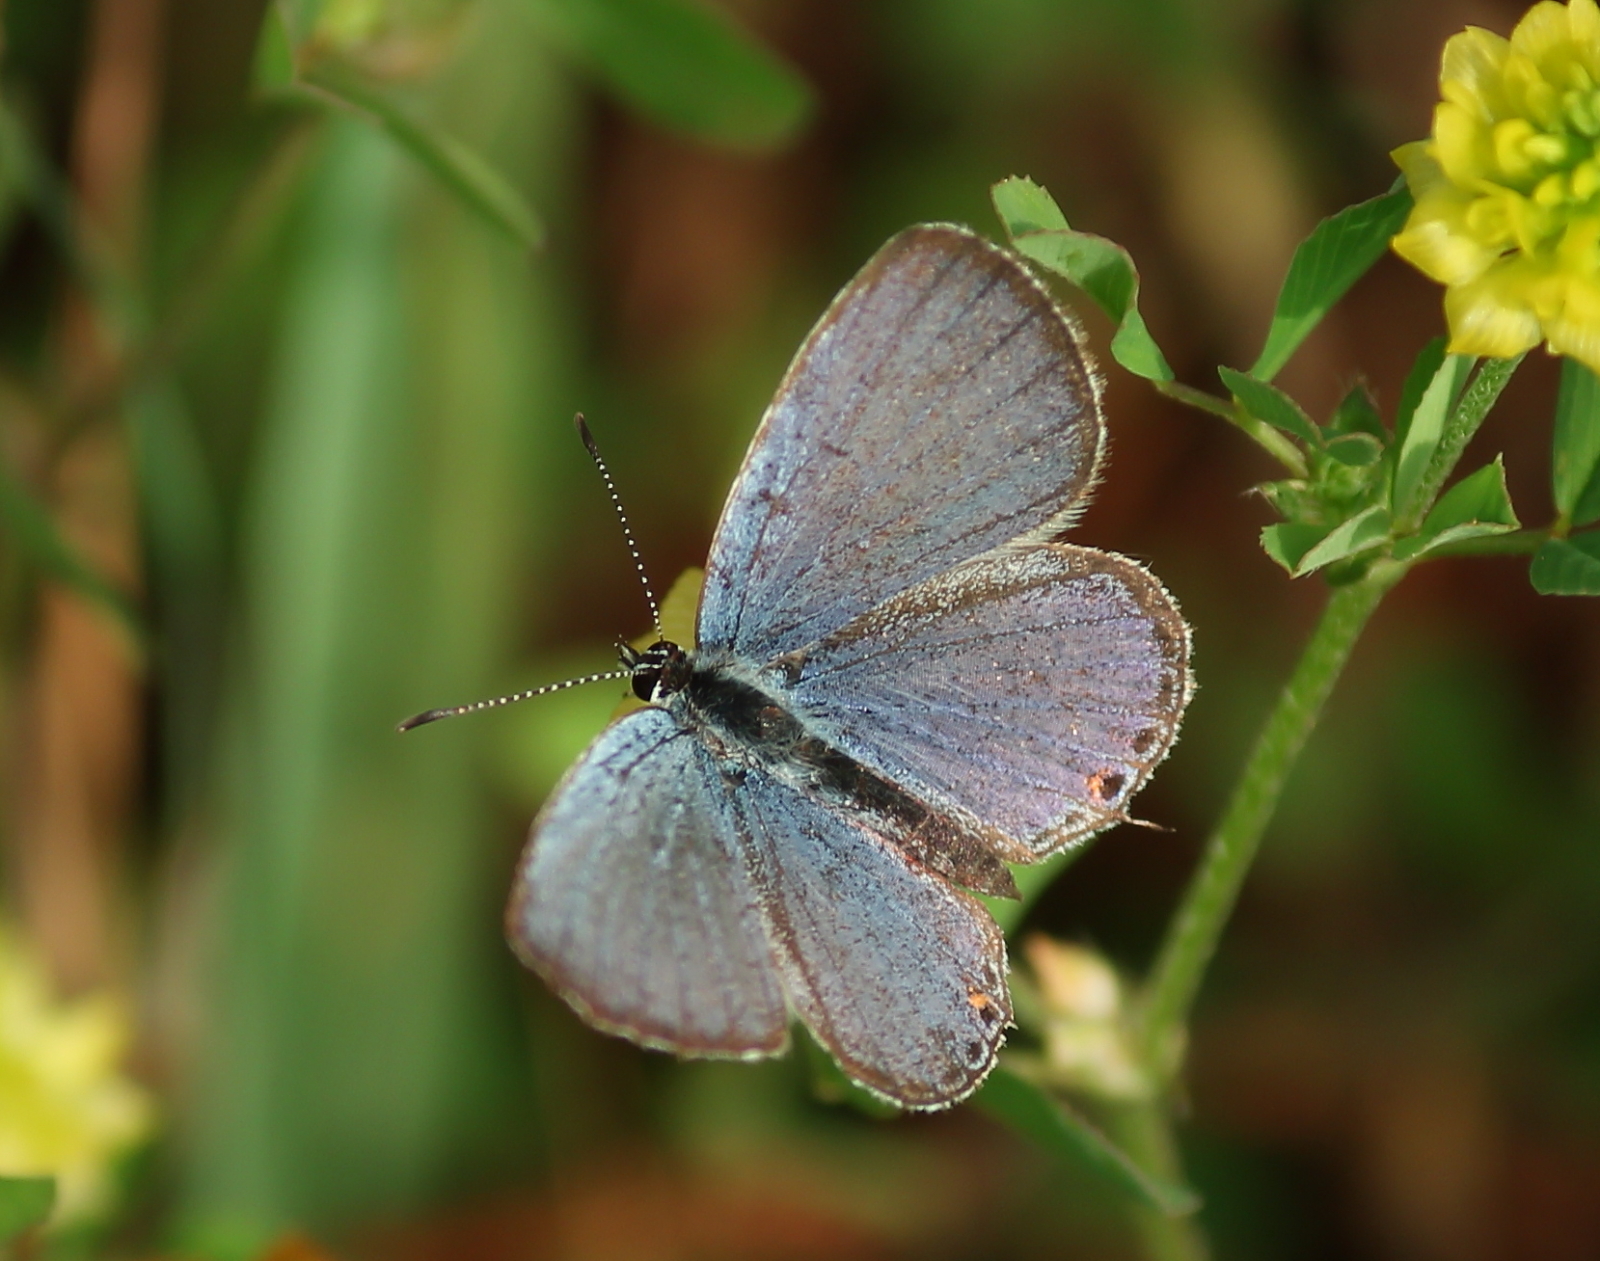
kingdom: Animalia
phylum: Arthropoda
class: Insecta
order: Lepidoptera
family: Lycaenidae
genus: Elkalyce
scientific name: Elkalyce comyntas
